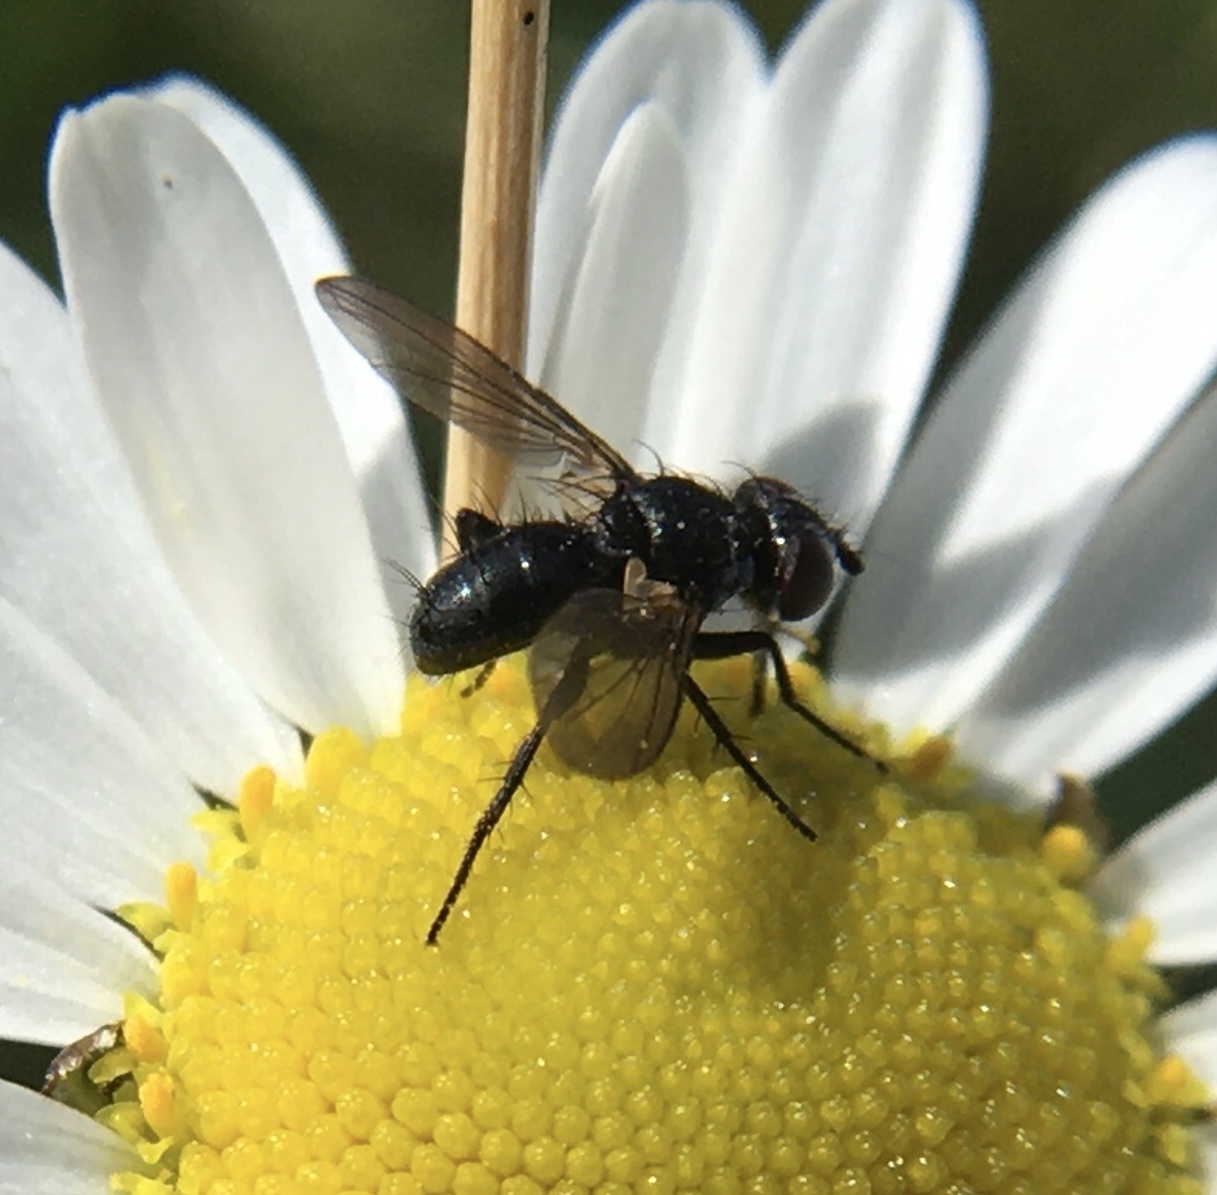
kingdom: Animalia
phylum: Arthropoda
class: Insecta
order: Diptera
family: Tachinidae
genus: Phania
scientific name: Phania funesta
